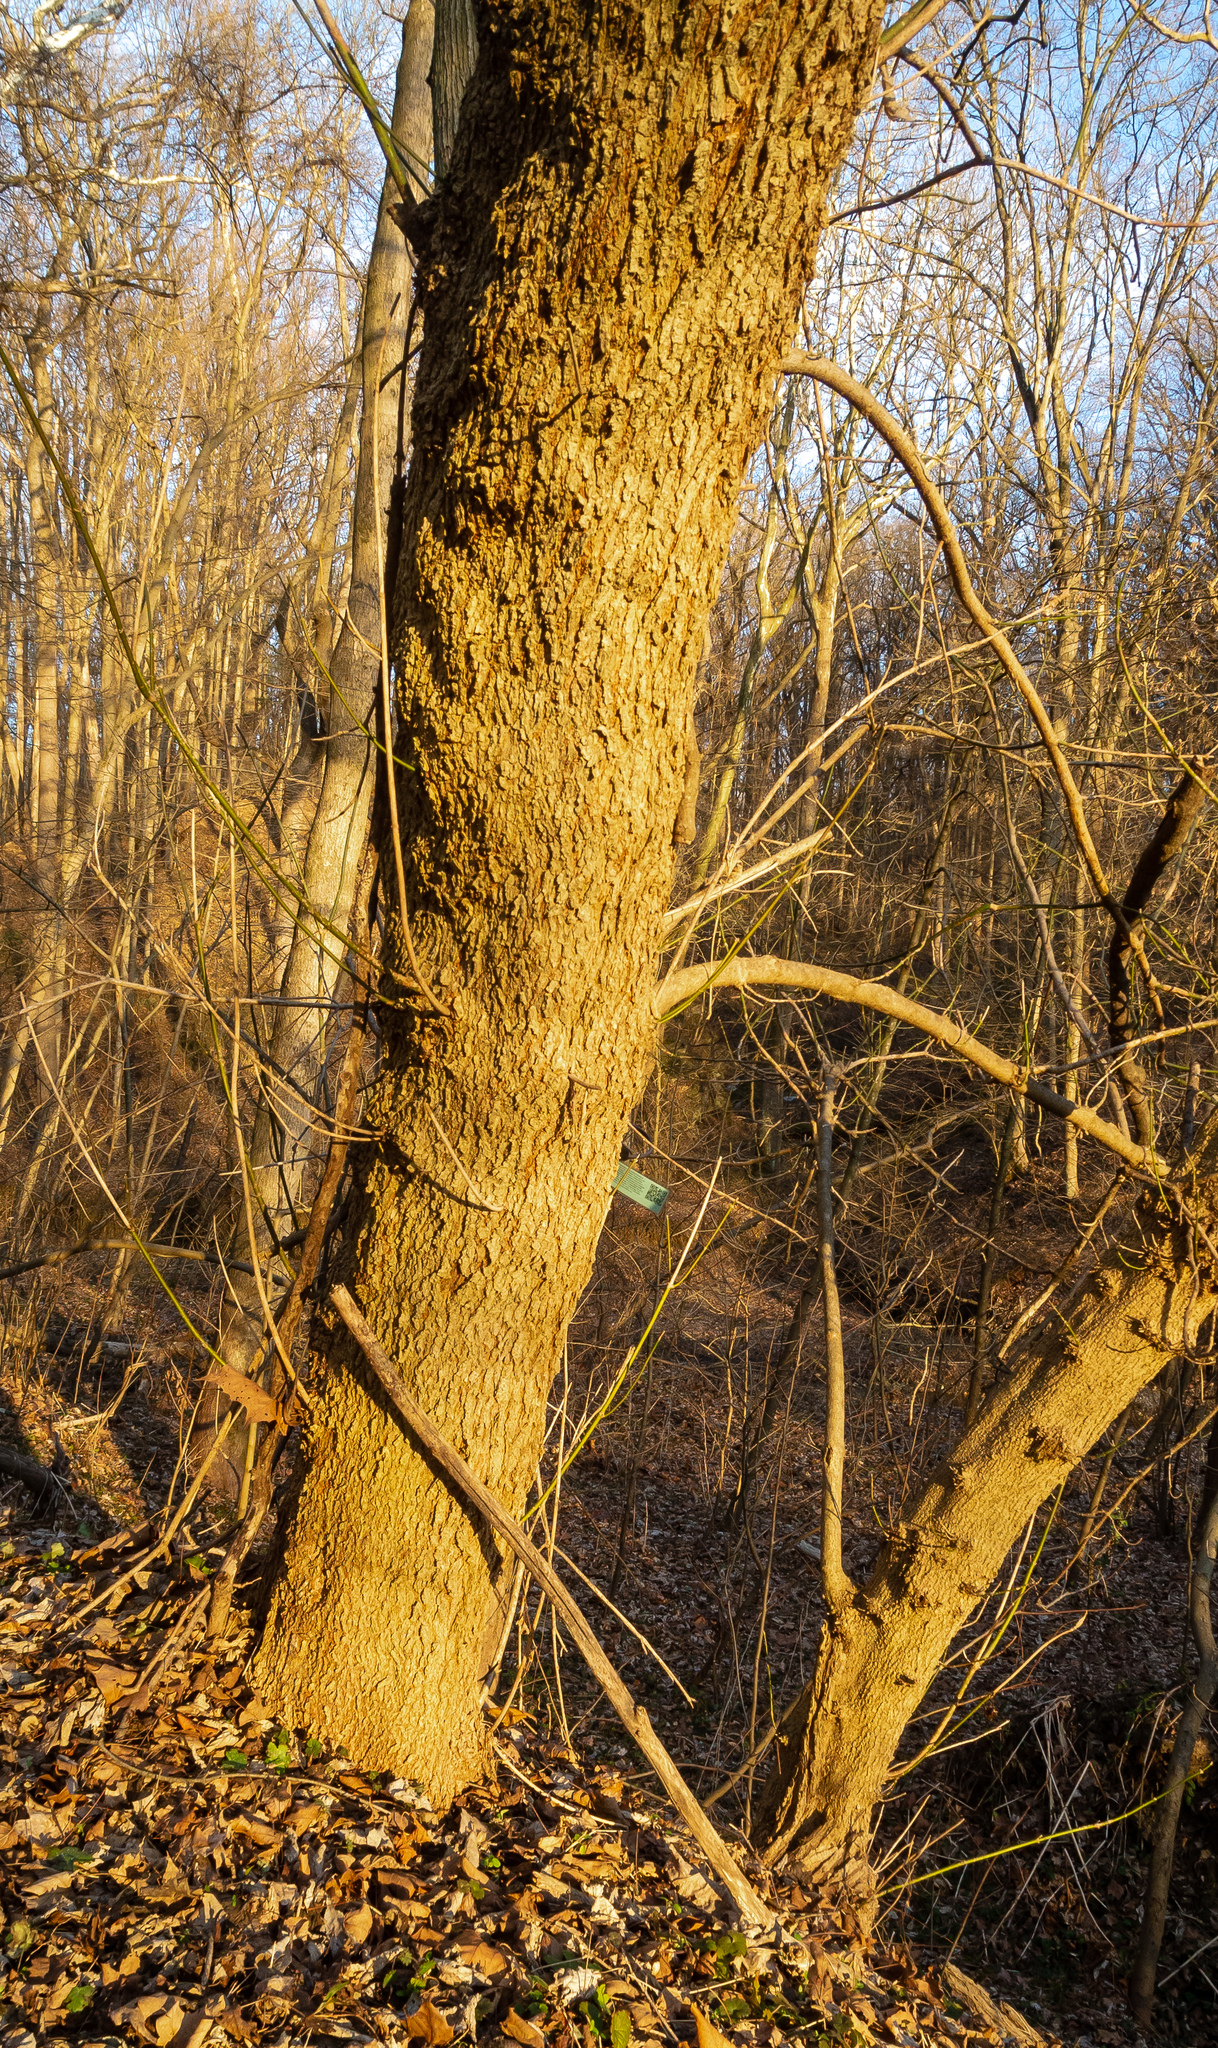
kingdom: Plantae
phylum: Tracheophyta
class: Magnoliopsida
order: Sapindales
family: Sapindaceae
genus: Acer
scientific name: Acer negundo
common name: Ashleaf maple
